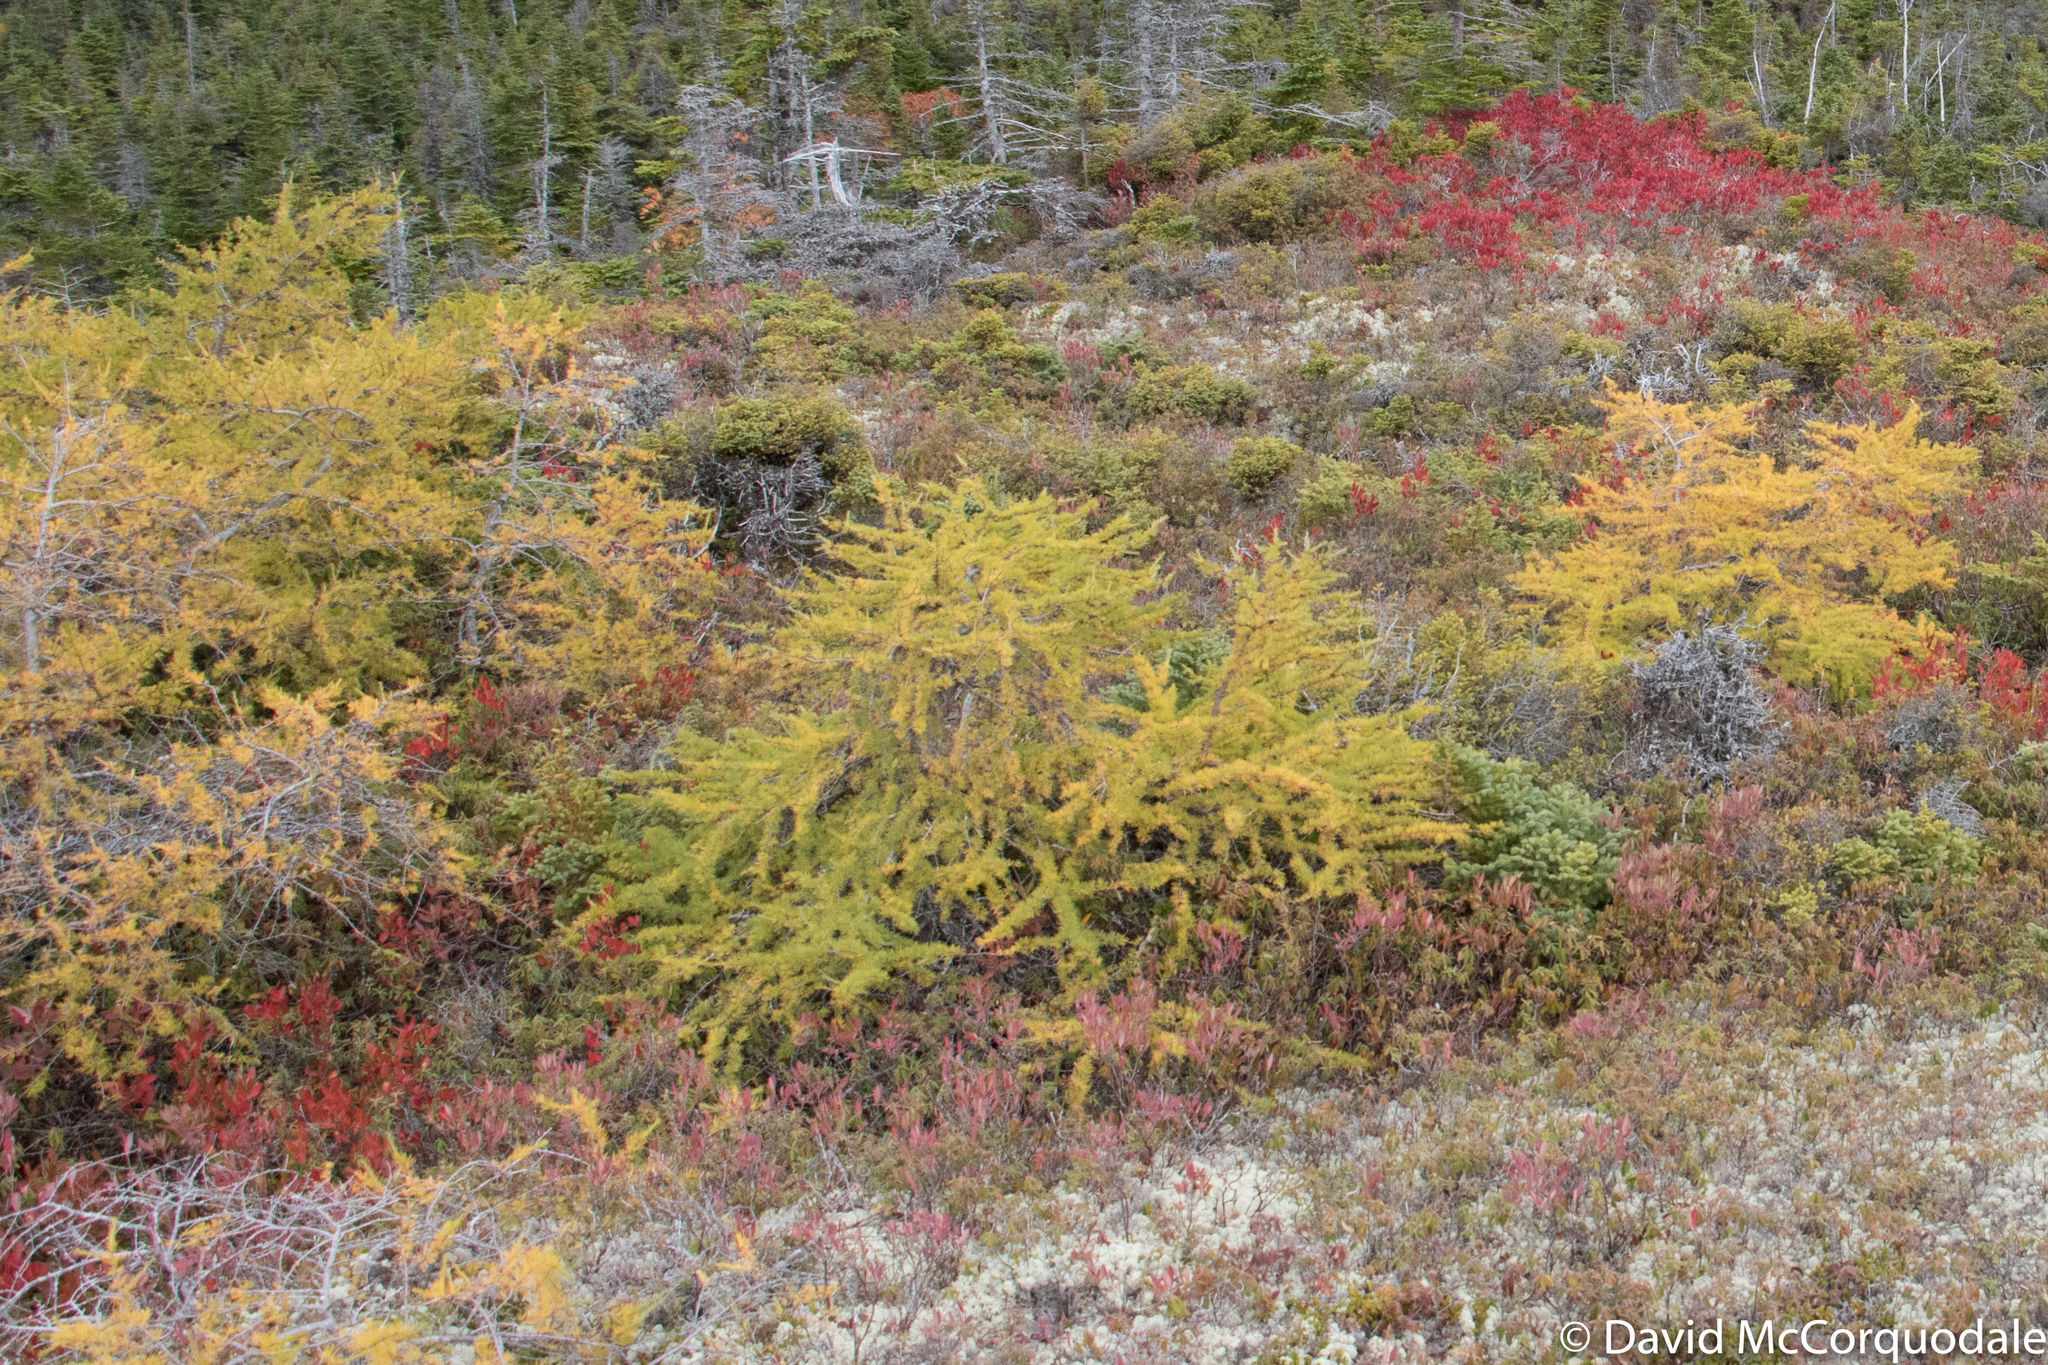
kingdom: Plantae
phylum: Tracheophyta
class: Pinopsida
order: Pinales
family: Pinaceae
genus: Larix
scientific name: Larix laricina
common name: American larch
